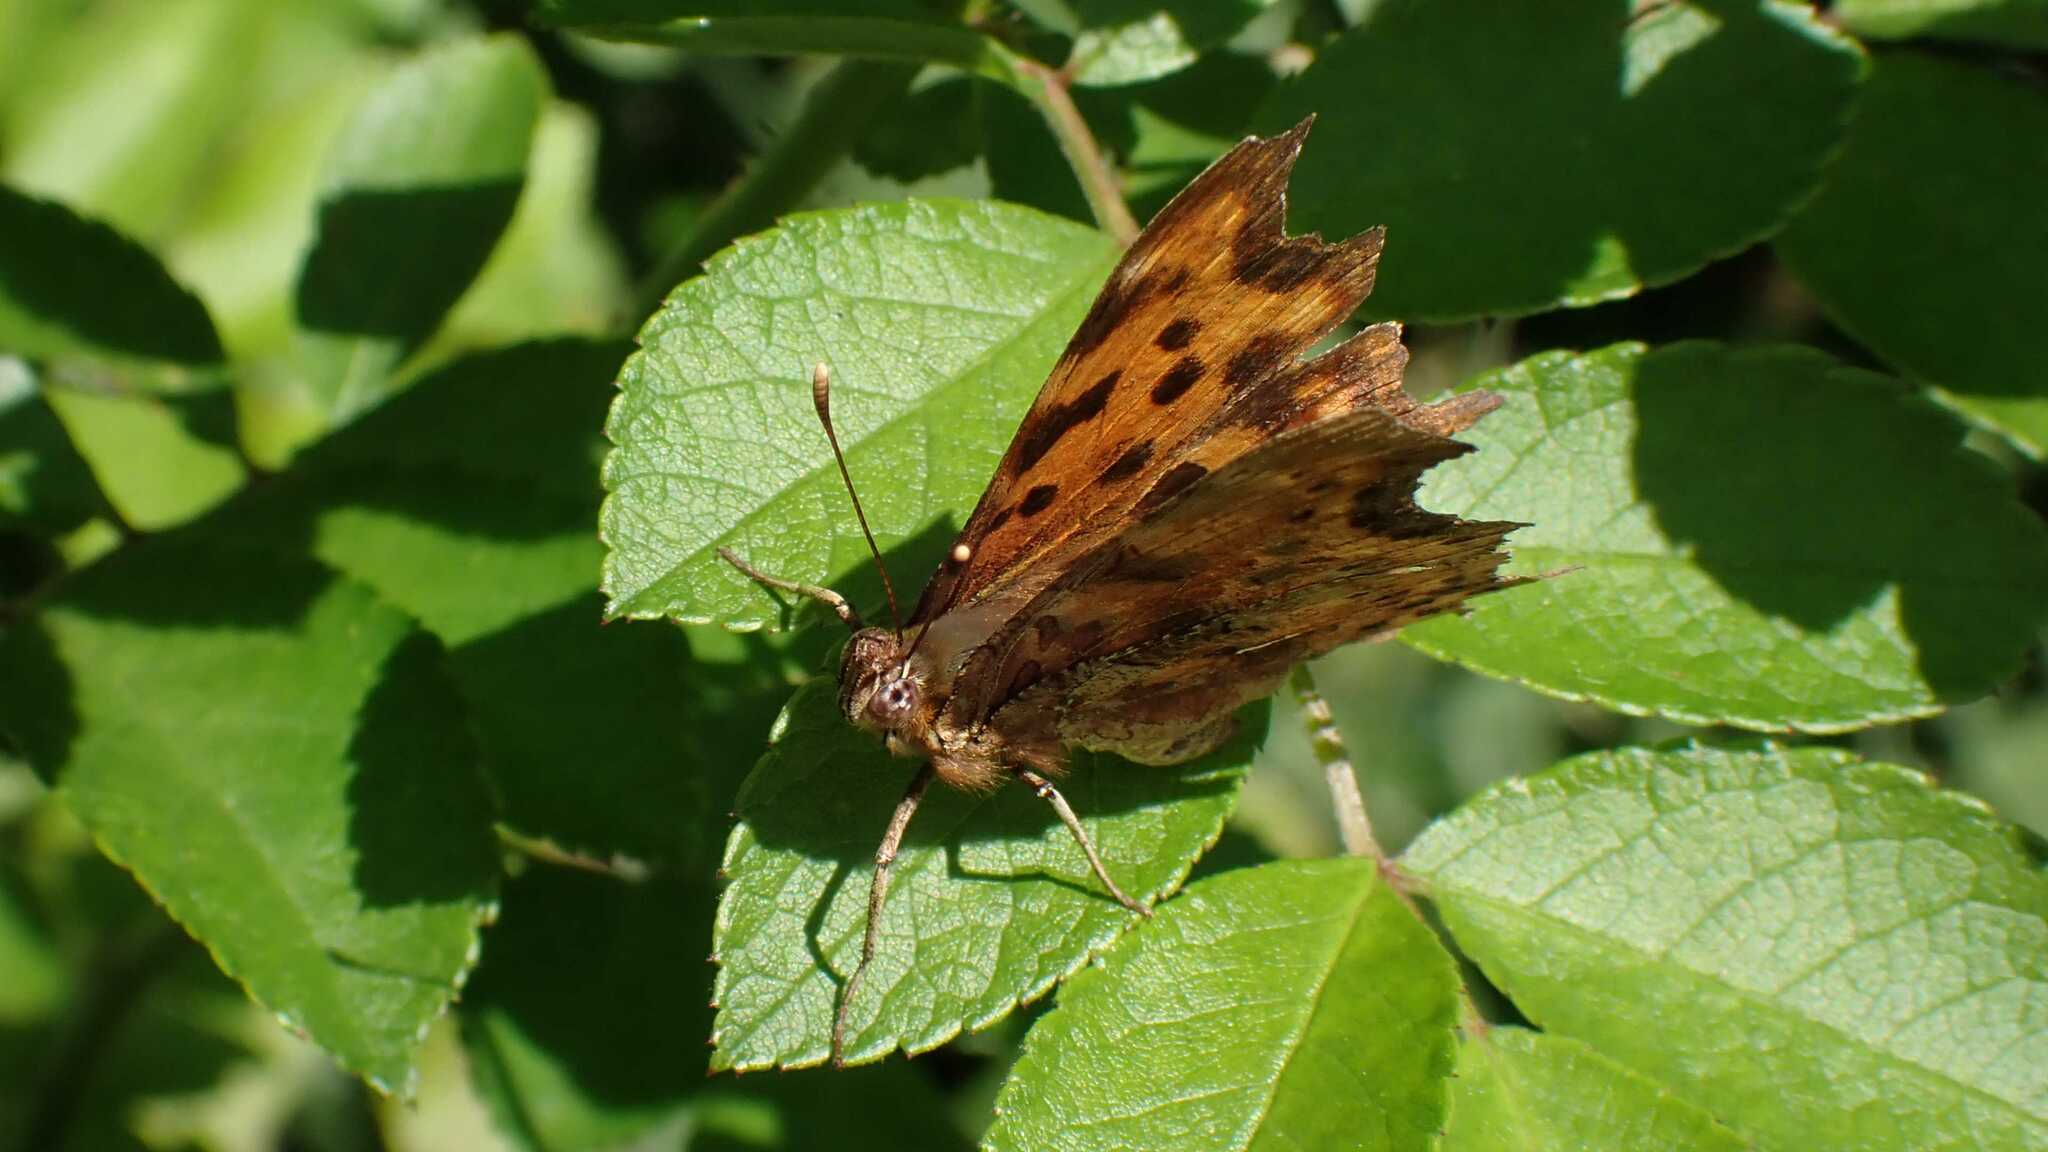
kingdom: Animalia
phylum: Arthropoda
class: Insecta
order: Lepidoptera
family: Nymphalidae
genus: Polygonia
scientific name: Polygonia c-album
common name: Comma
